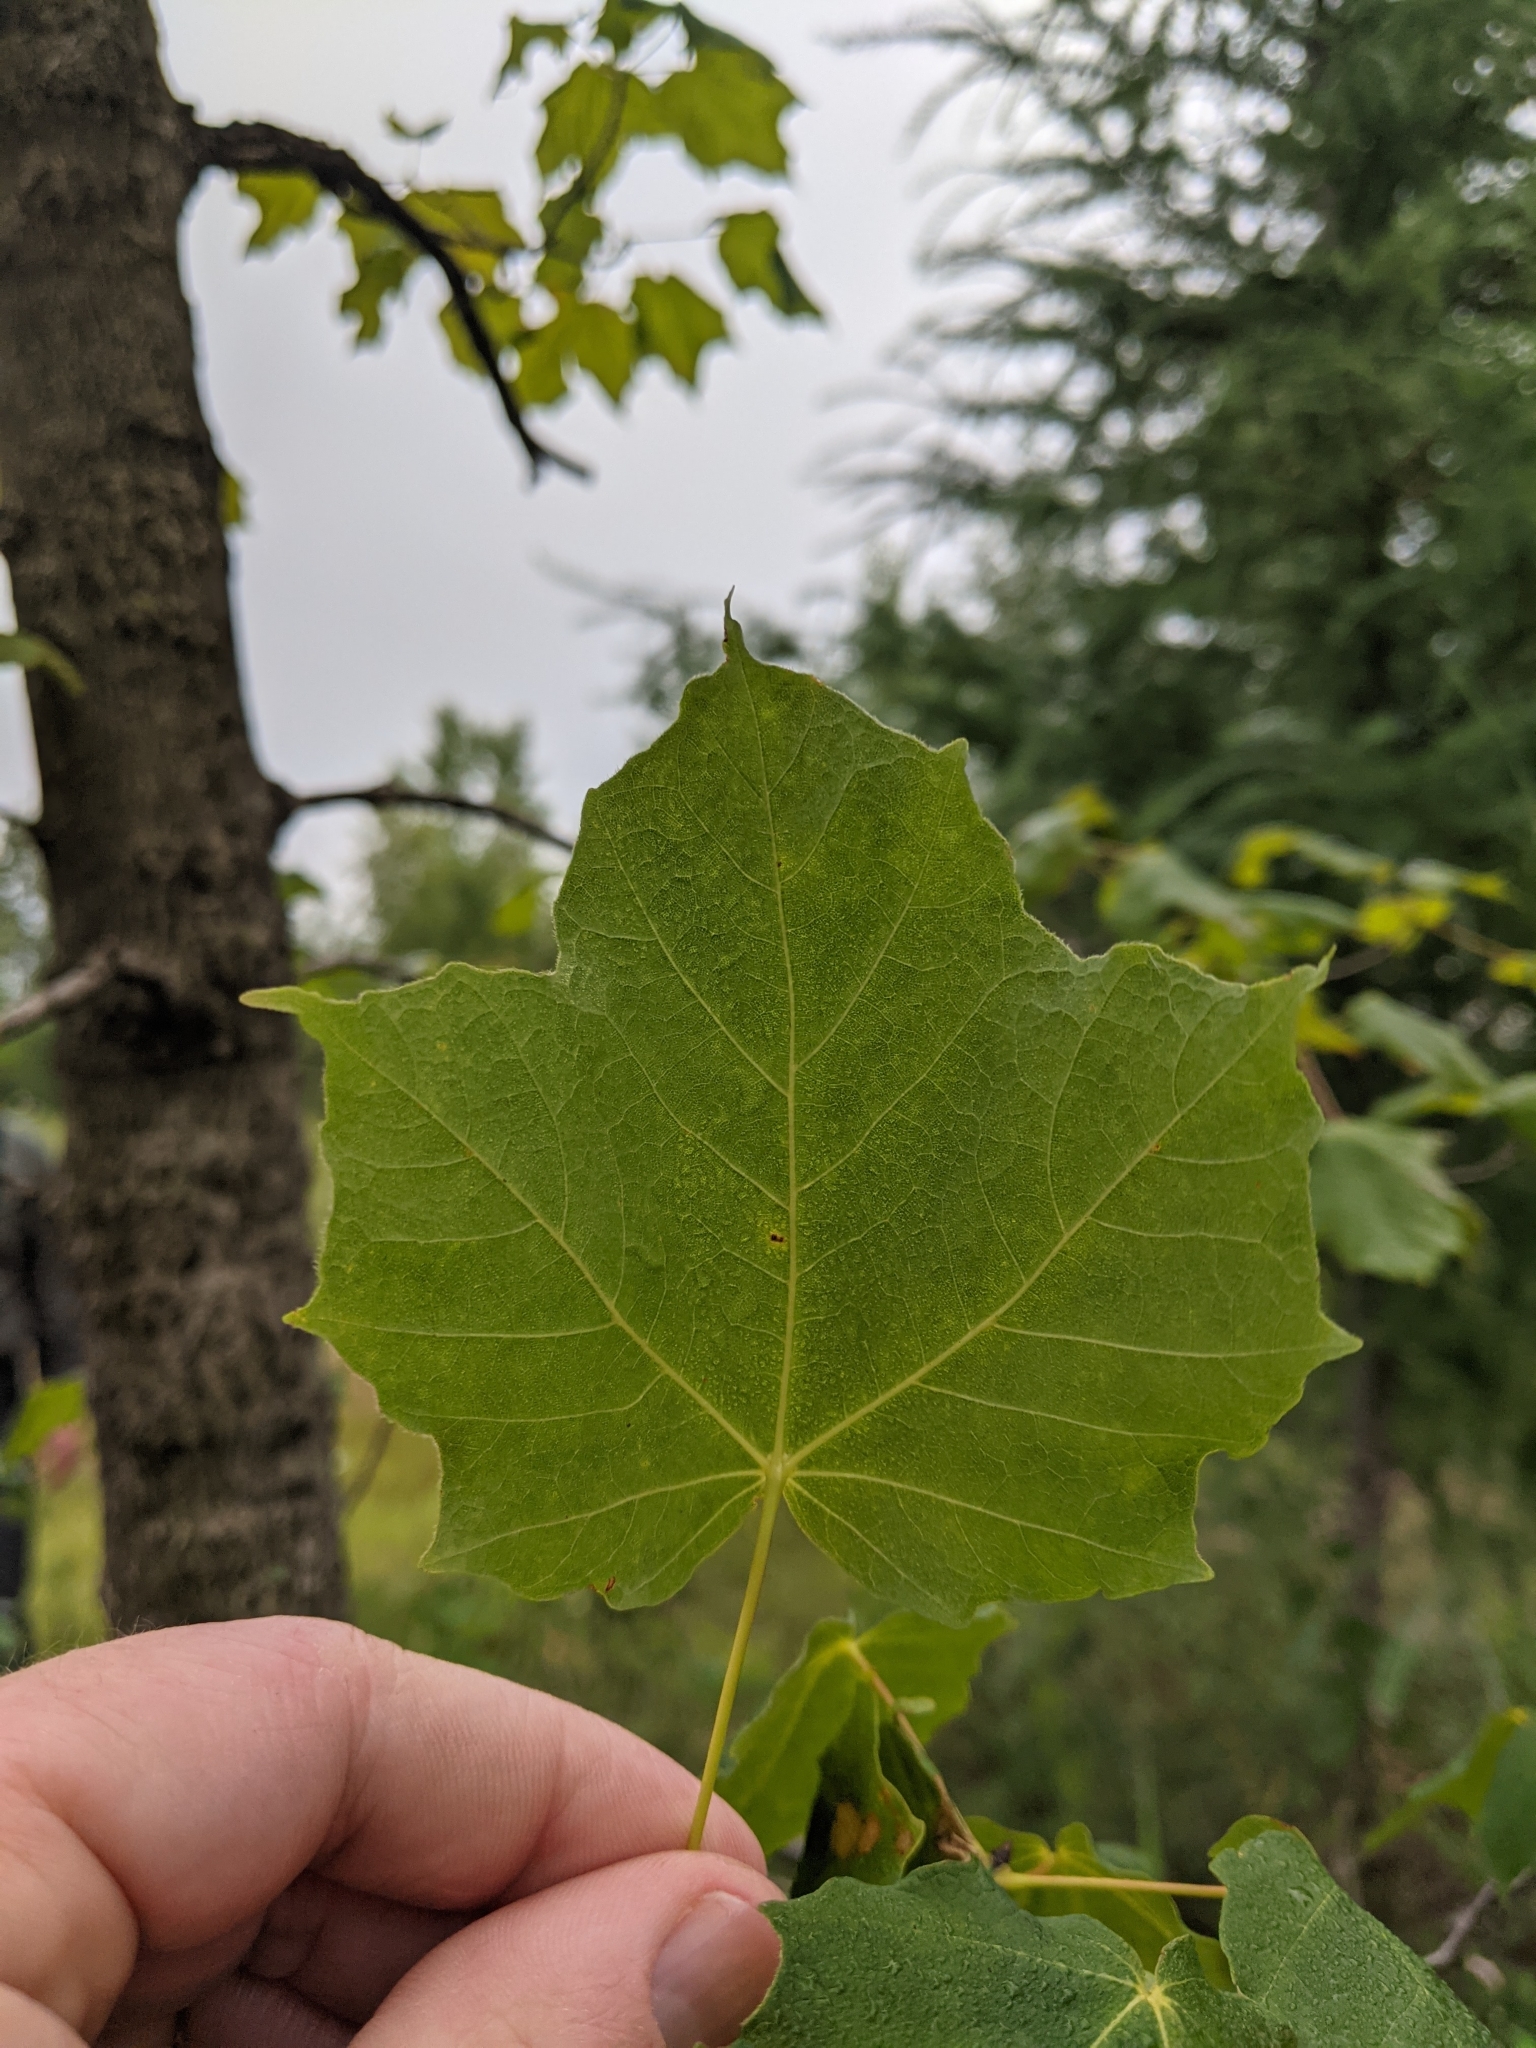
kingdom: Plantae
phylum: Tracheophyta
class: Magnoliopsida
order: Sapindales
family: Sapindaceae
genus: Acer
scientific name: Acer nigrum
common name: Black maple
